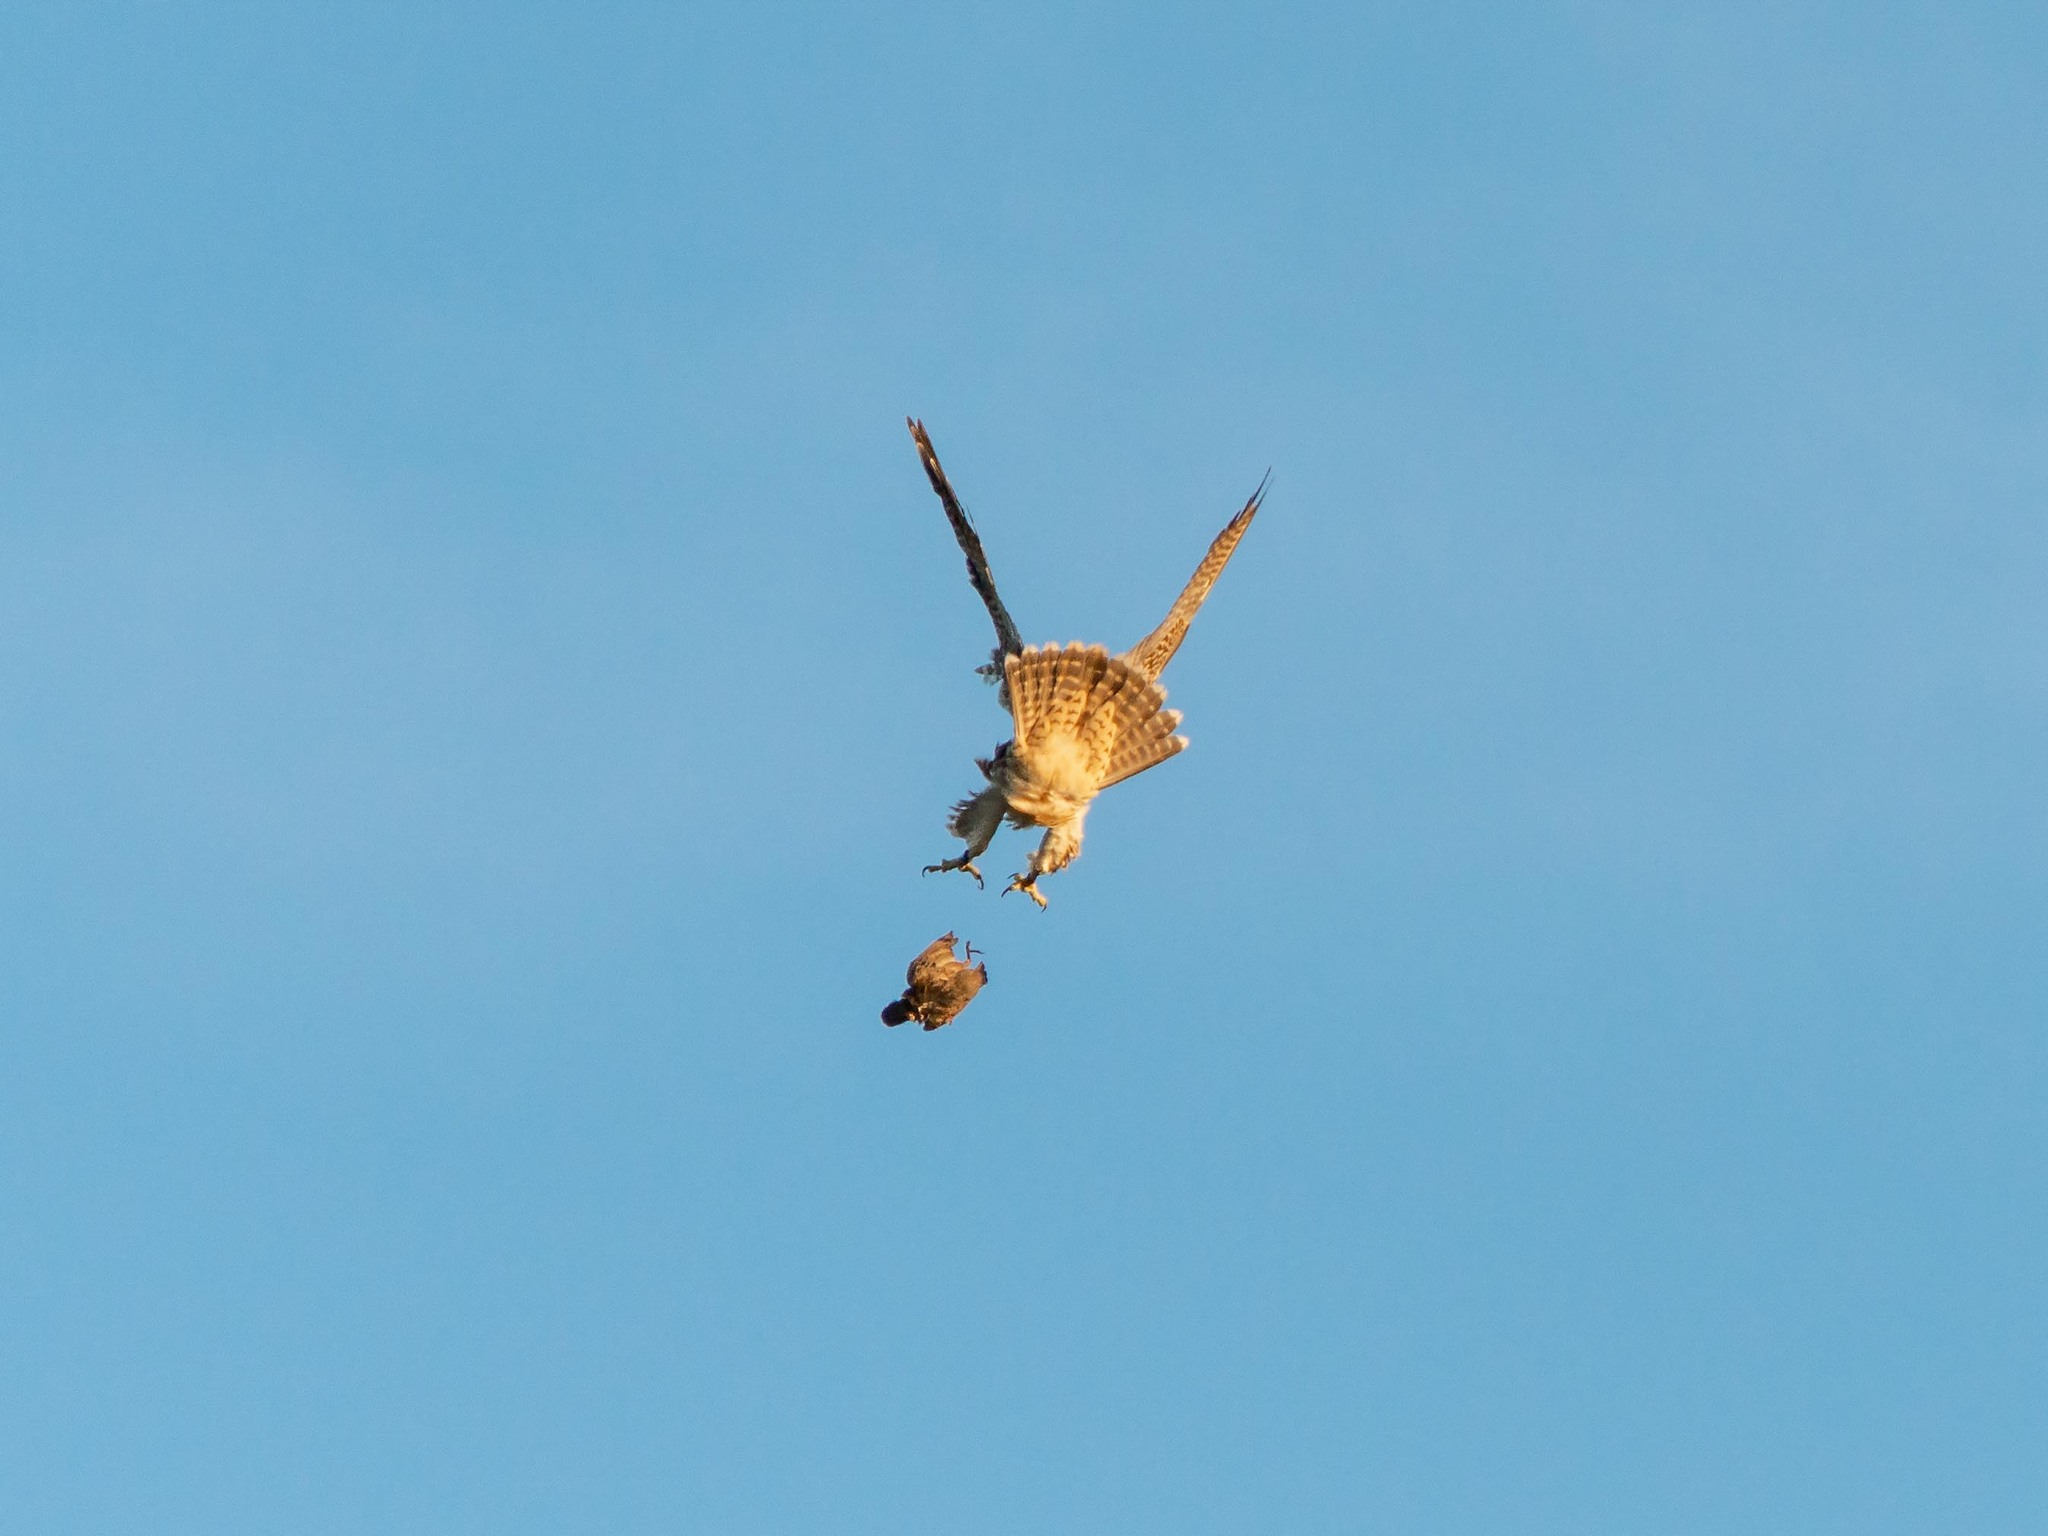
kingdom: Animalia
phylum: Chordata
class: Aves
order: Falconiformes
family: Falconidae
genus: Falco
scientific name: Falco peregrinus
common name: Peregrine falcon
